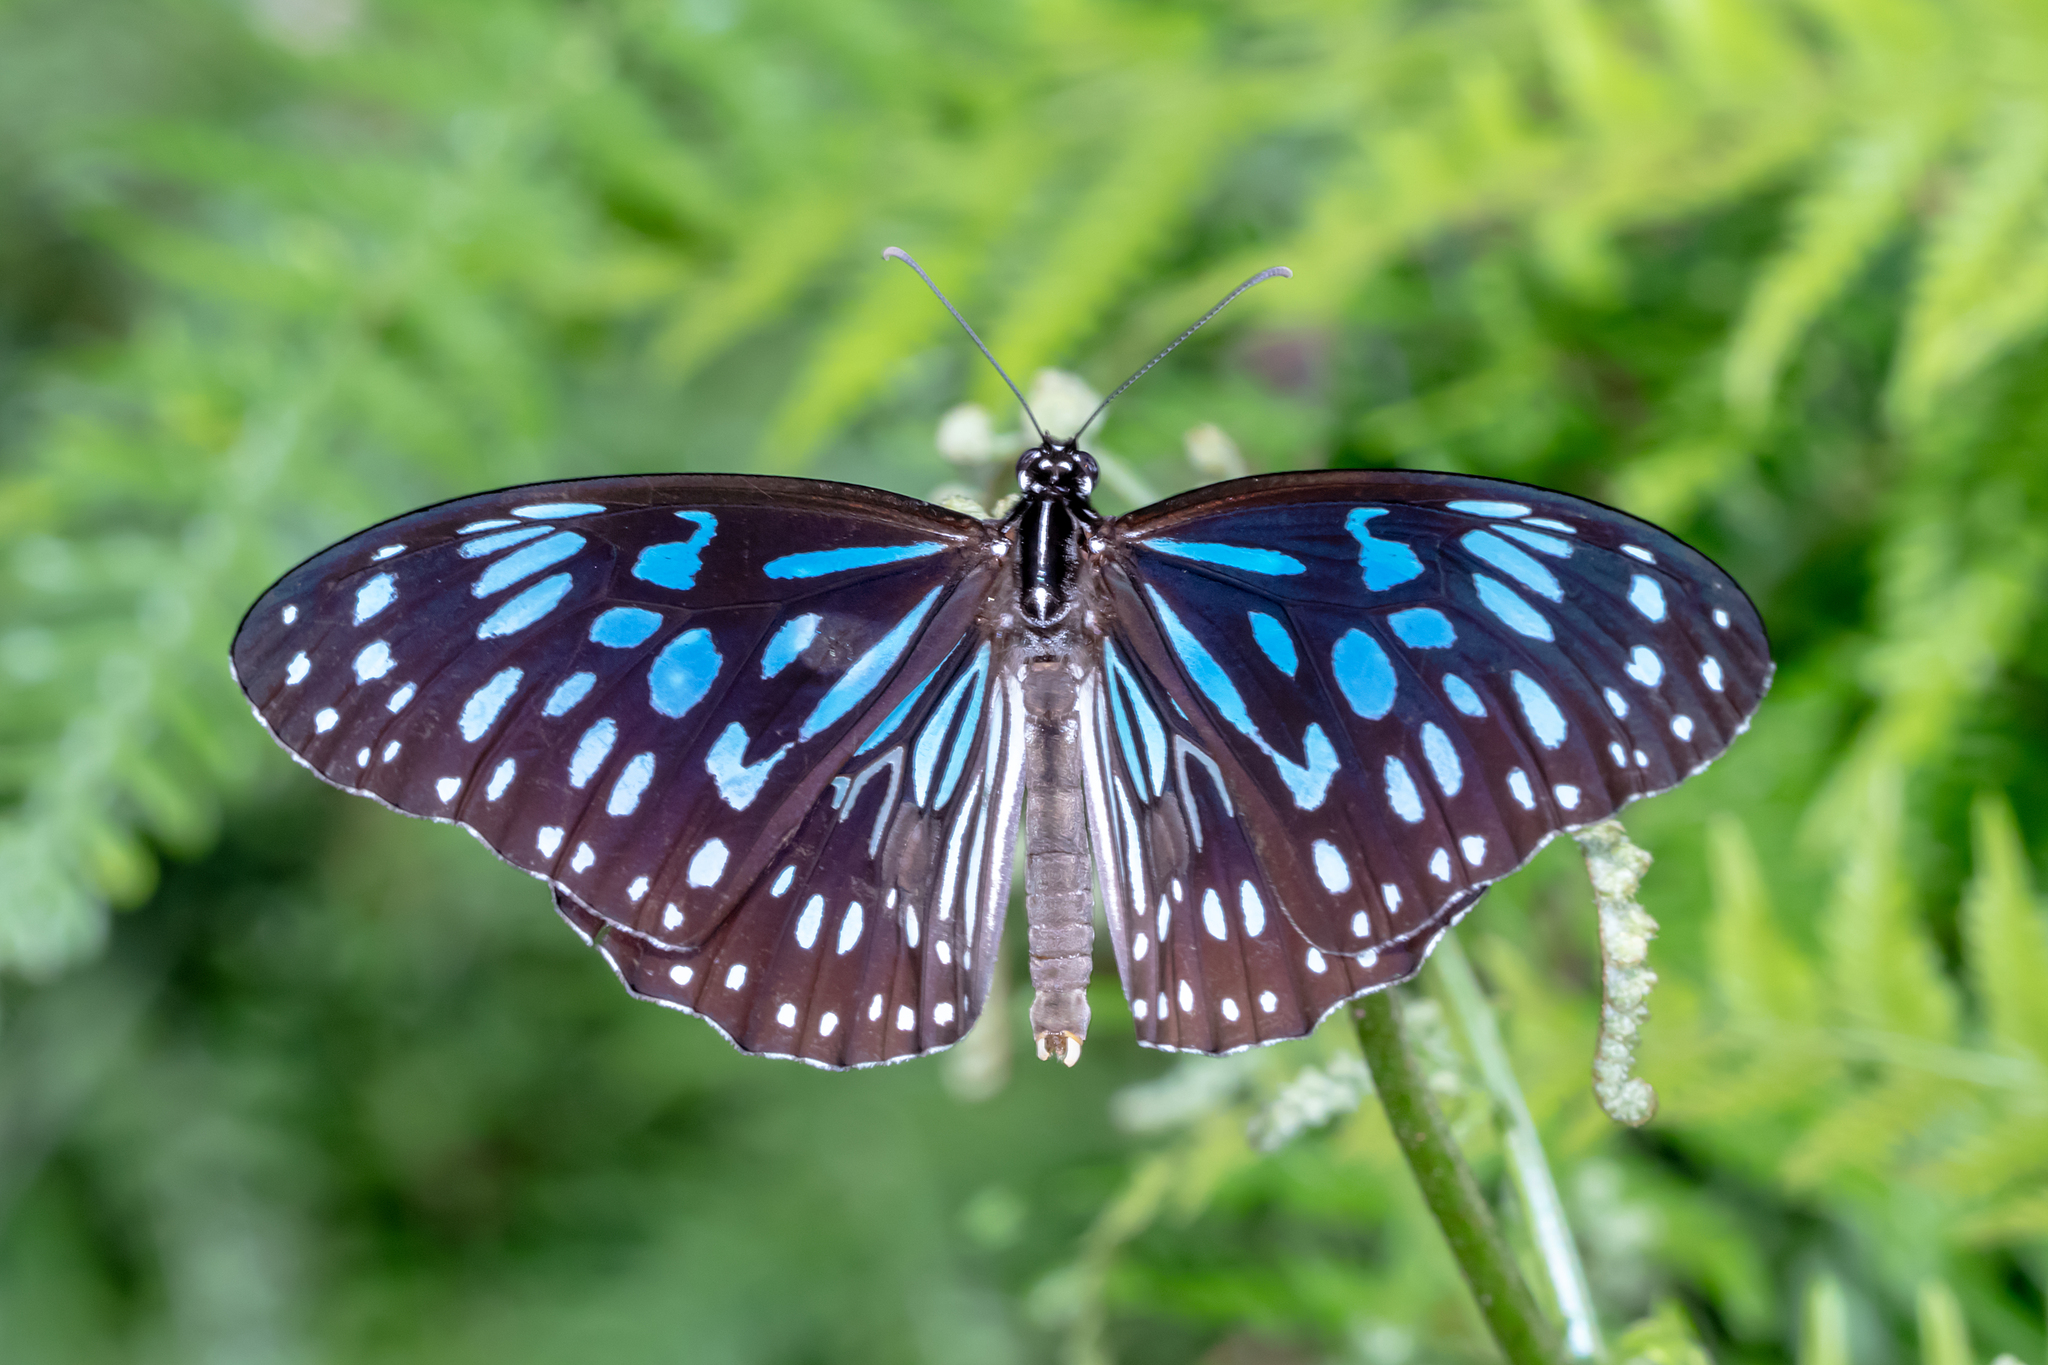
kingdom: Animalia
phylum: Arthropoda
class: Insecta
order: Lepidoptera
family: Nymphalidae
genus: Tirumala
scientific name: Tirumala hamata
